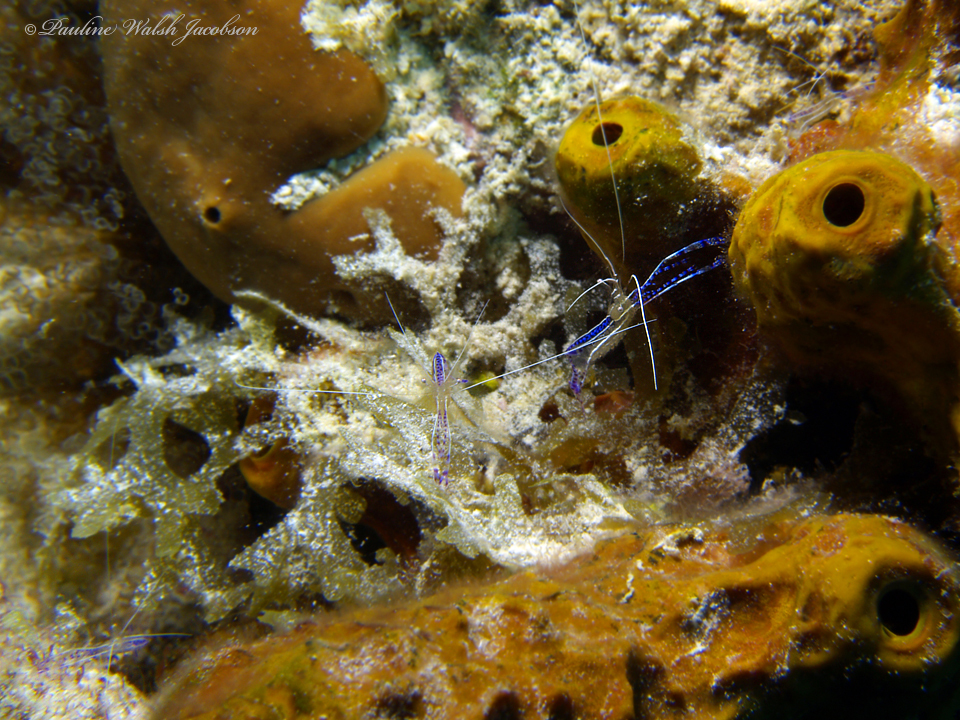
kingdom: Animalia
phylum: Arthropoda
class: Malacostraca
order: Decapoda
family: Palaemonidae
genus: Ancylomenes
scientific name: Ancylomenes pedersoni
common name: Pederson's cleaning shrimp
